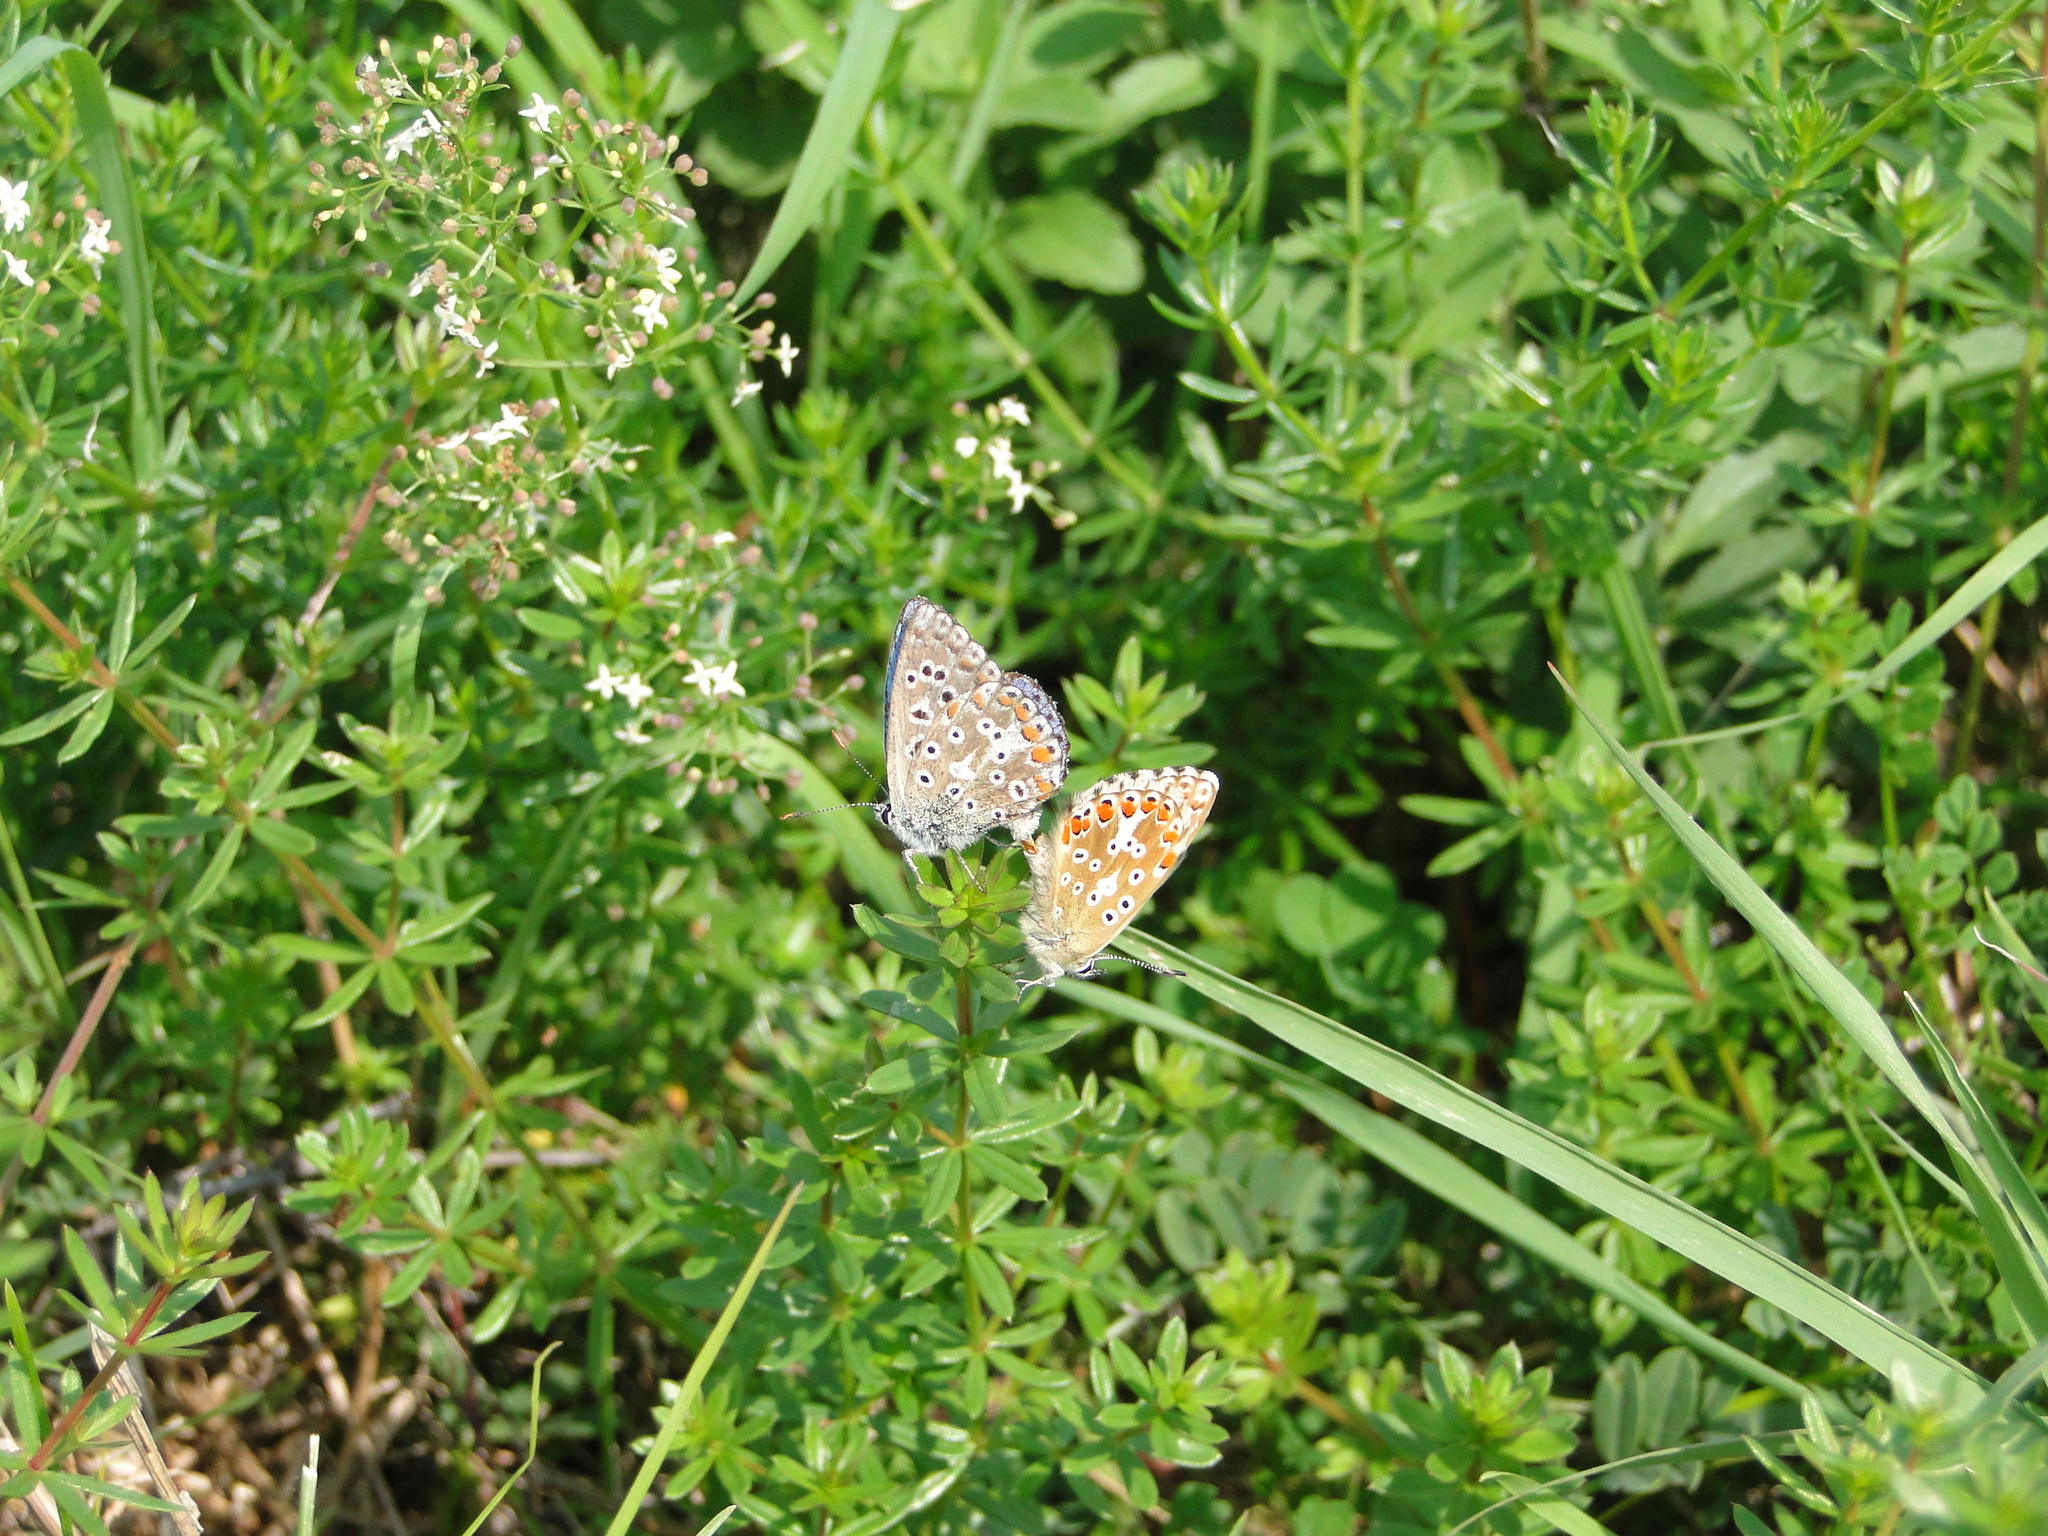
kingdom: Animalia
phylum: Arthropoda
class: Insecta
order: Lepidoptera
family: Lycaenidae
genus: Lysandra
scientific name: Lysandra bellargus
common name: Adonis blue
